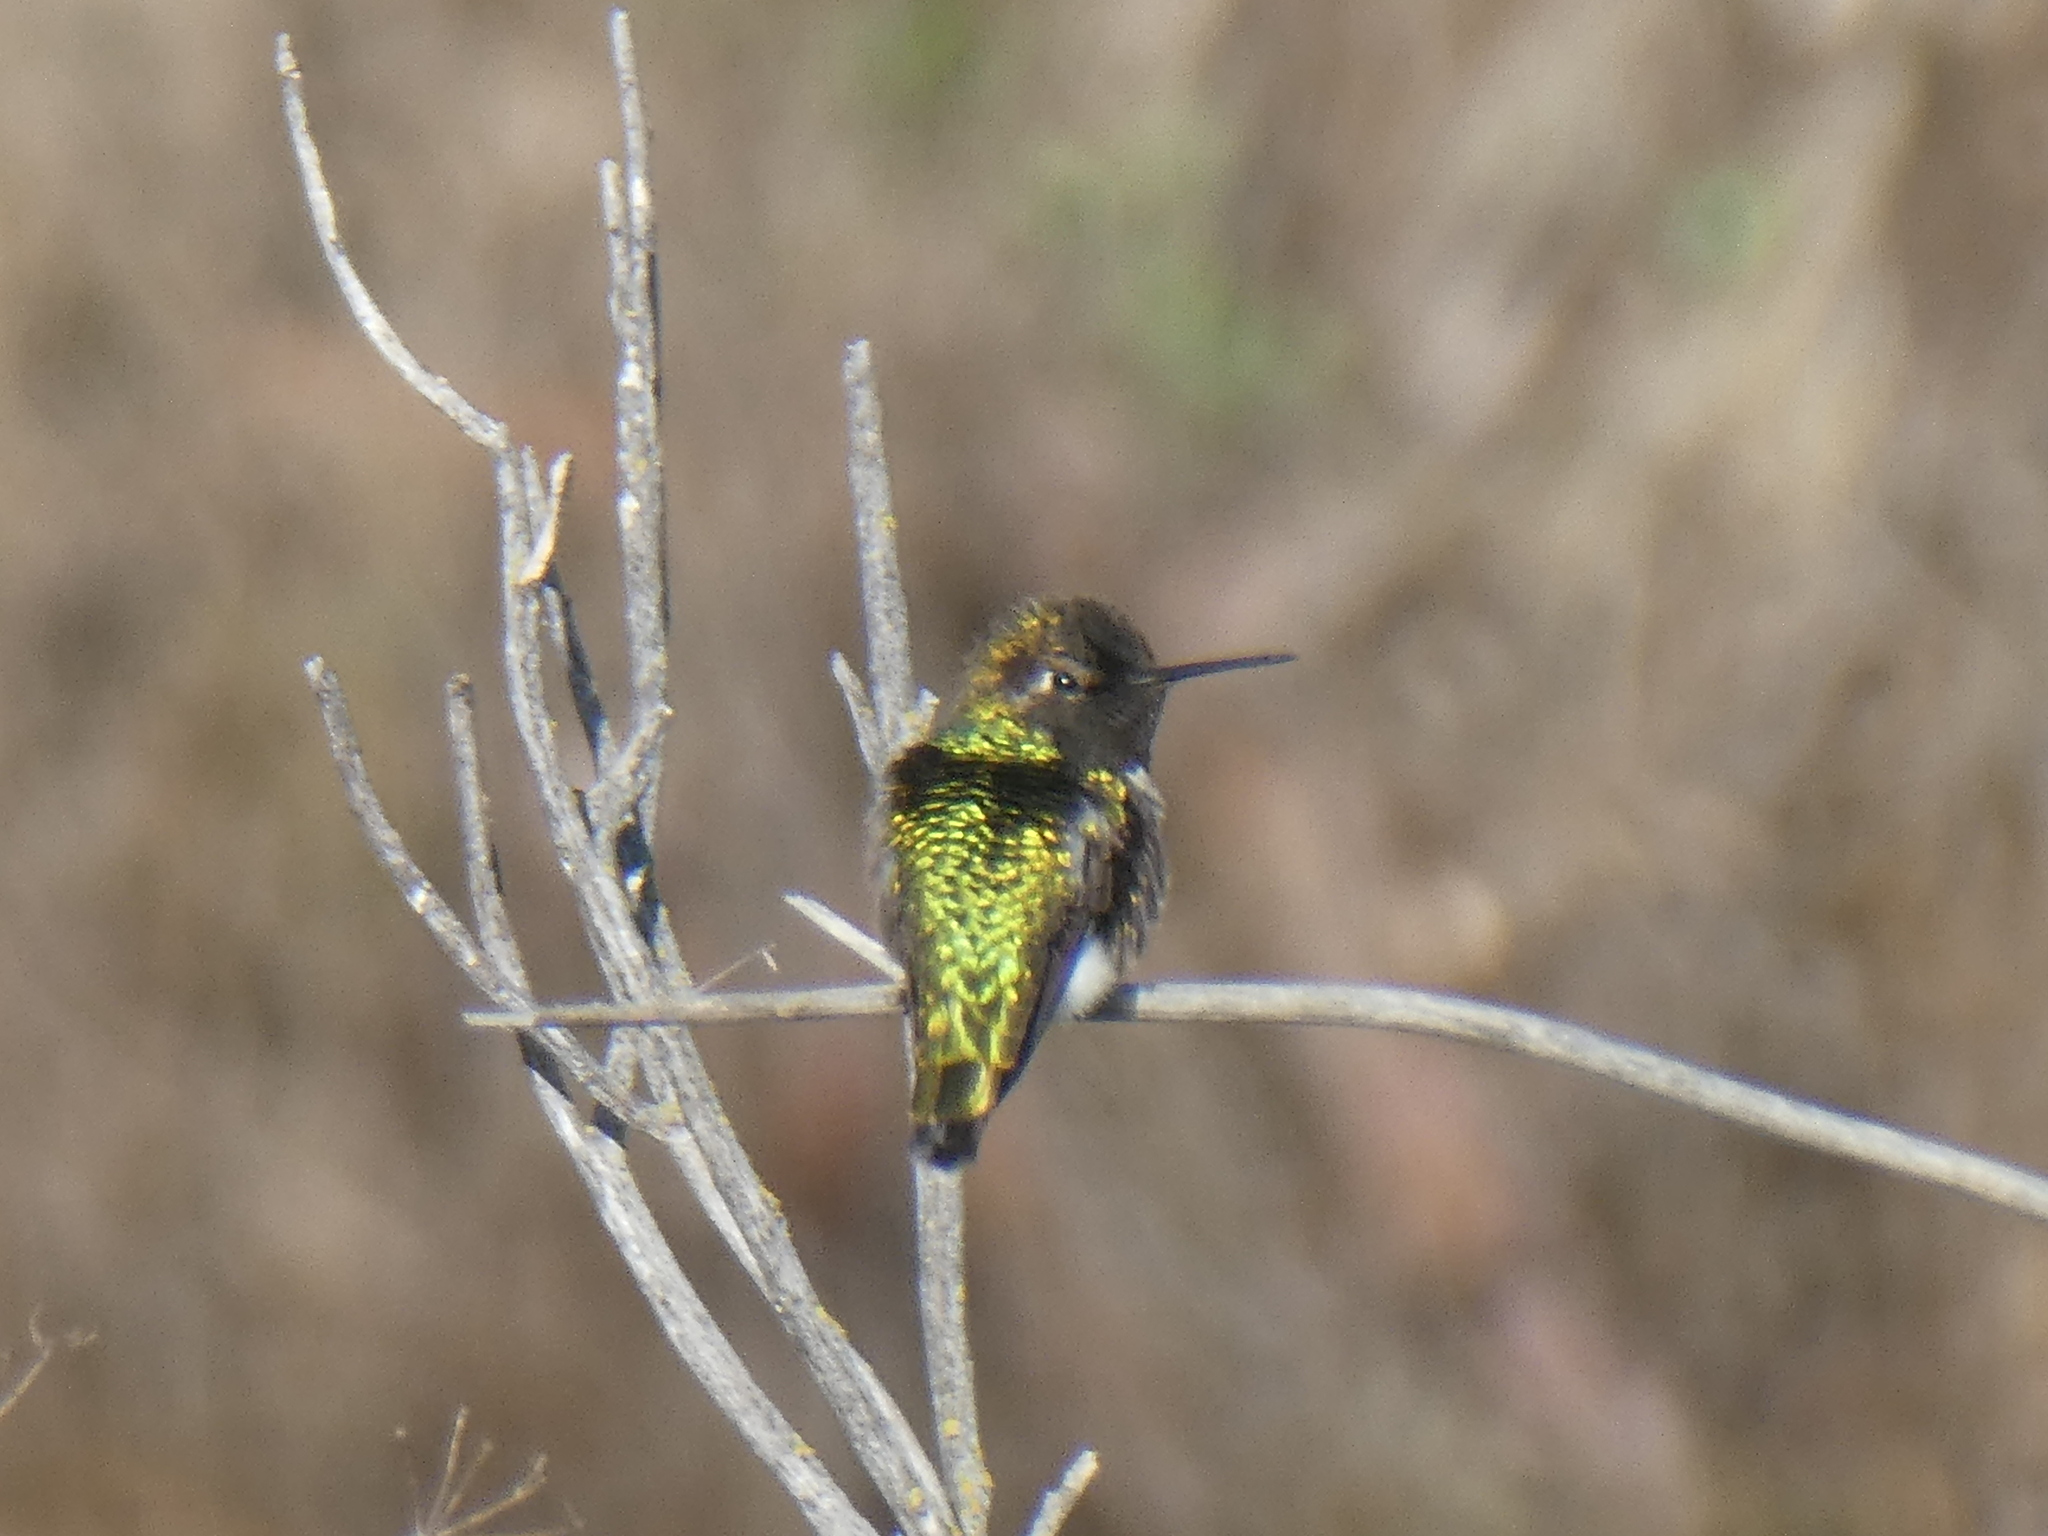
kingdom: Animalia
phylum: Chordata
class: Aves
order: Apodiformes
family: Trochilidae
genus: Calypte
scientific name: Calypte anna
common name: Anna's hummingbird
